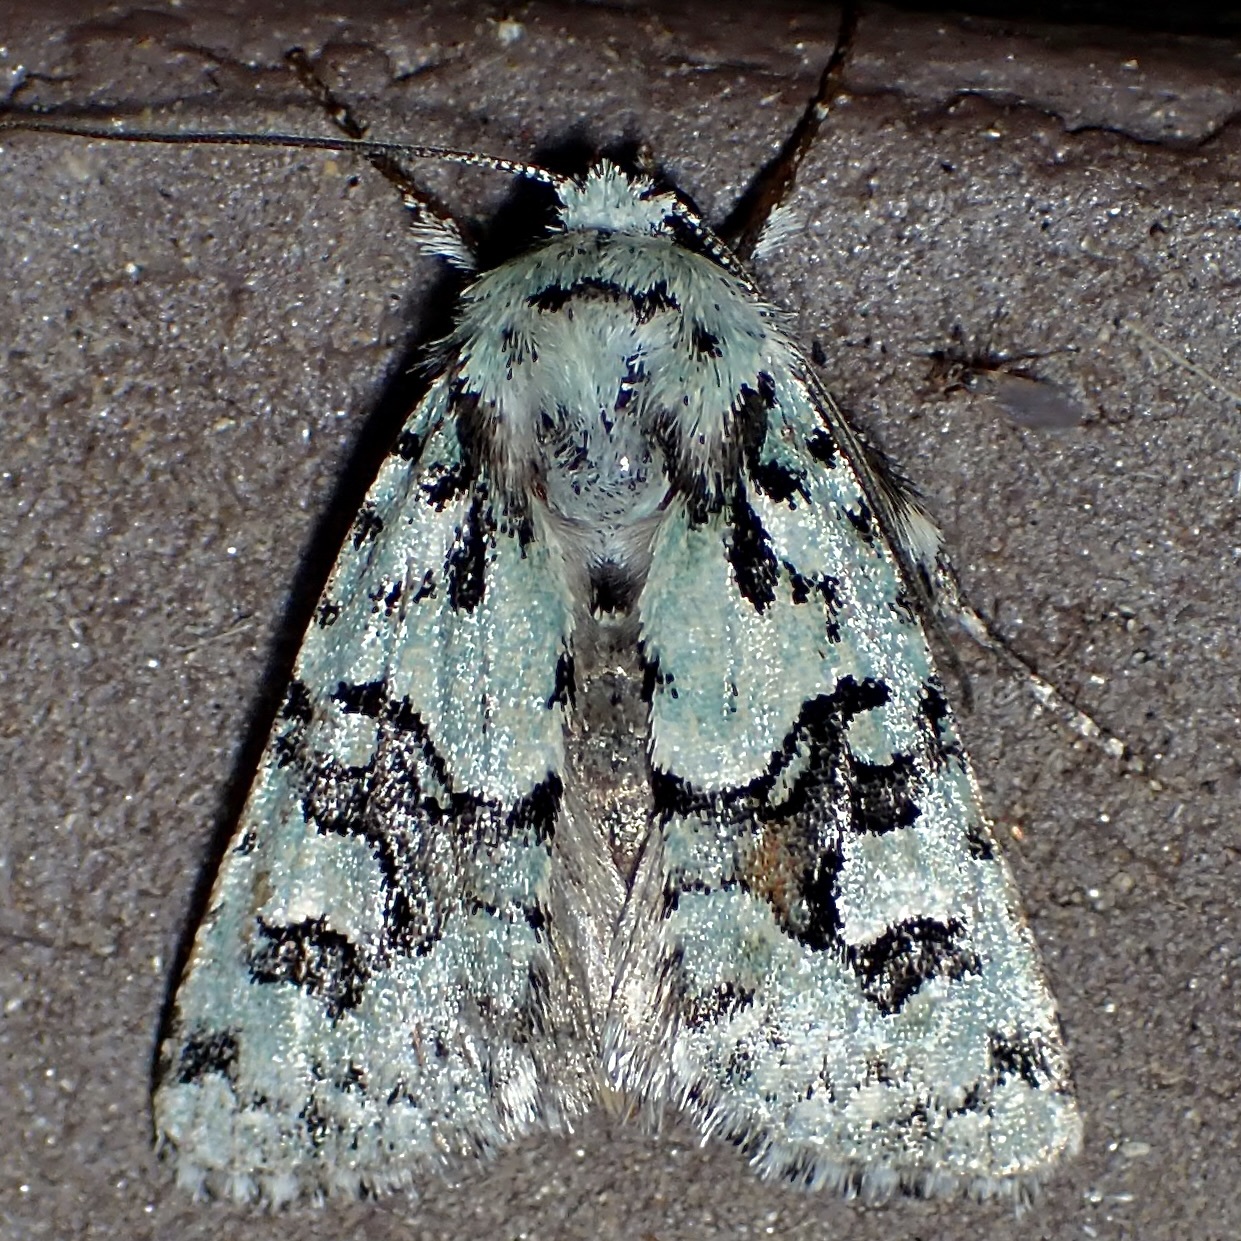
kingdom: Animalia
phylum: Arthropoda
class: Insecta
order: Lepidoptera
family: Noctuidae
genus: Lacinipolia
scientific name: Lacinipolia consimilis
